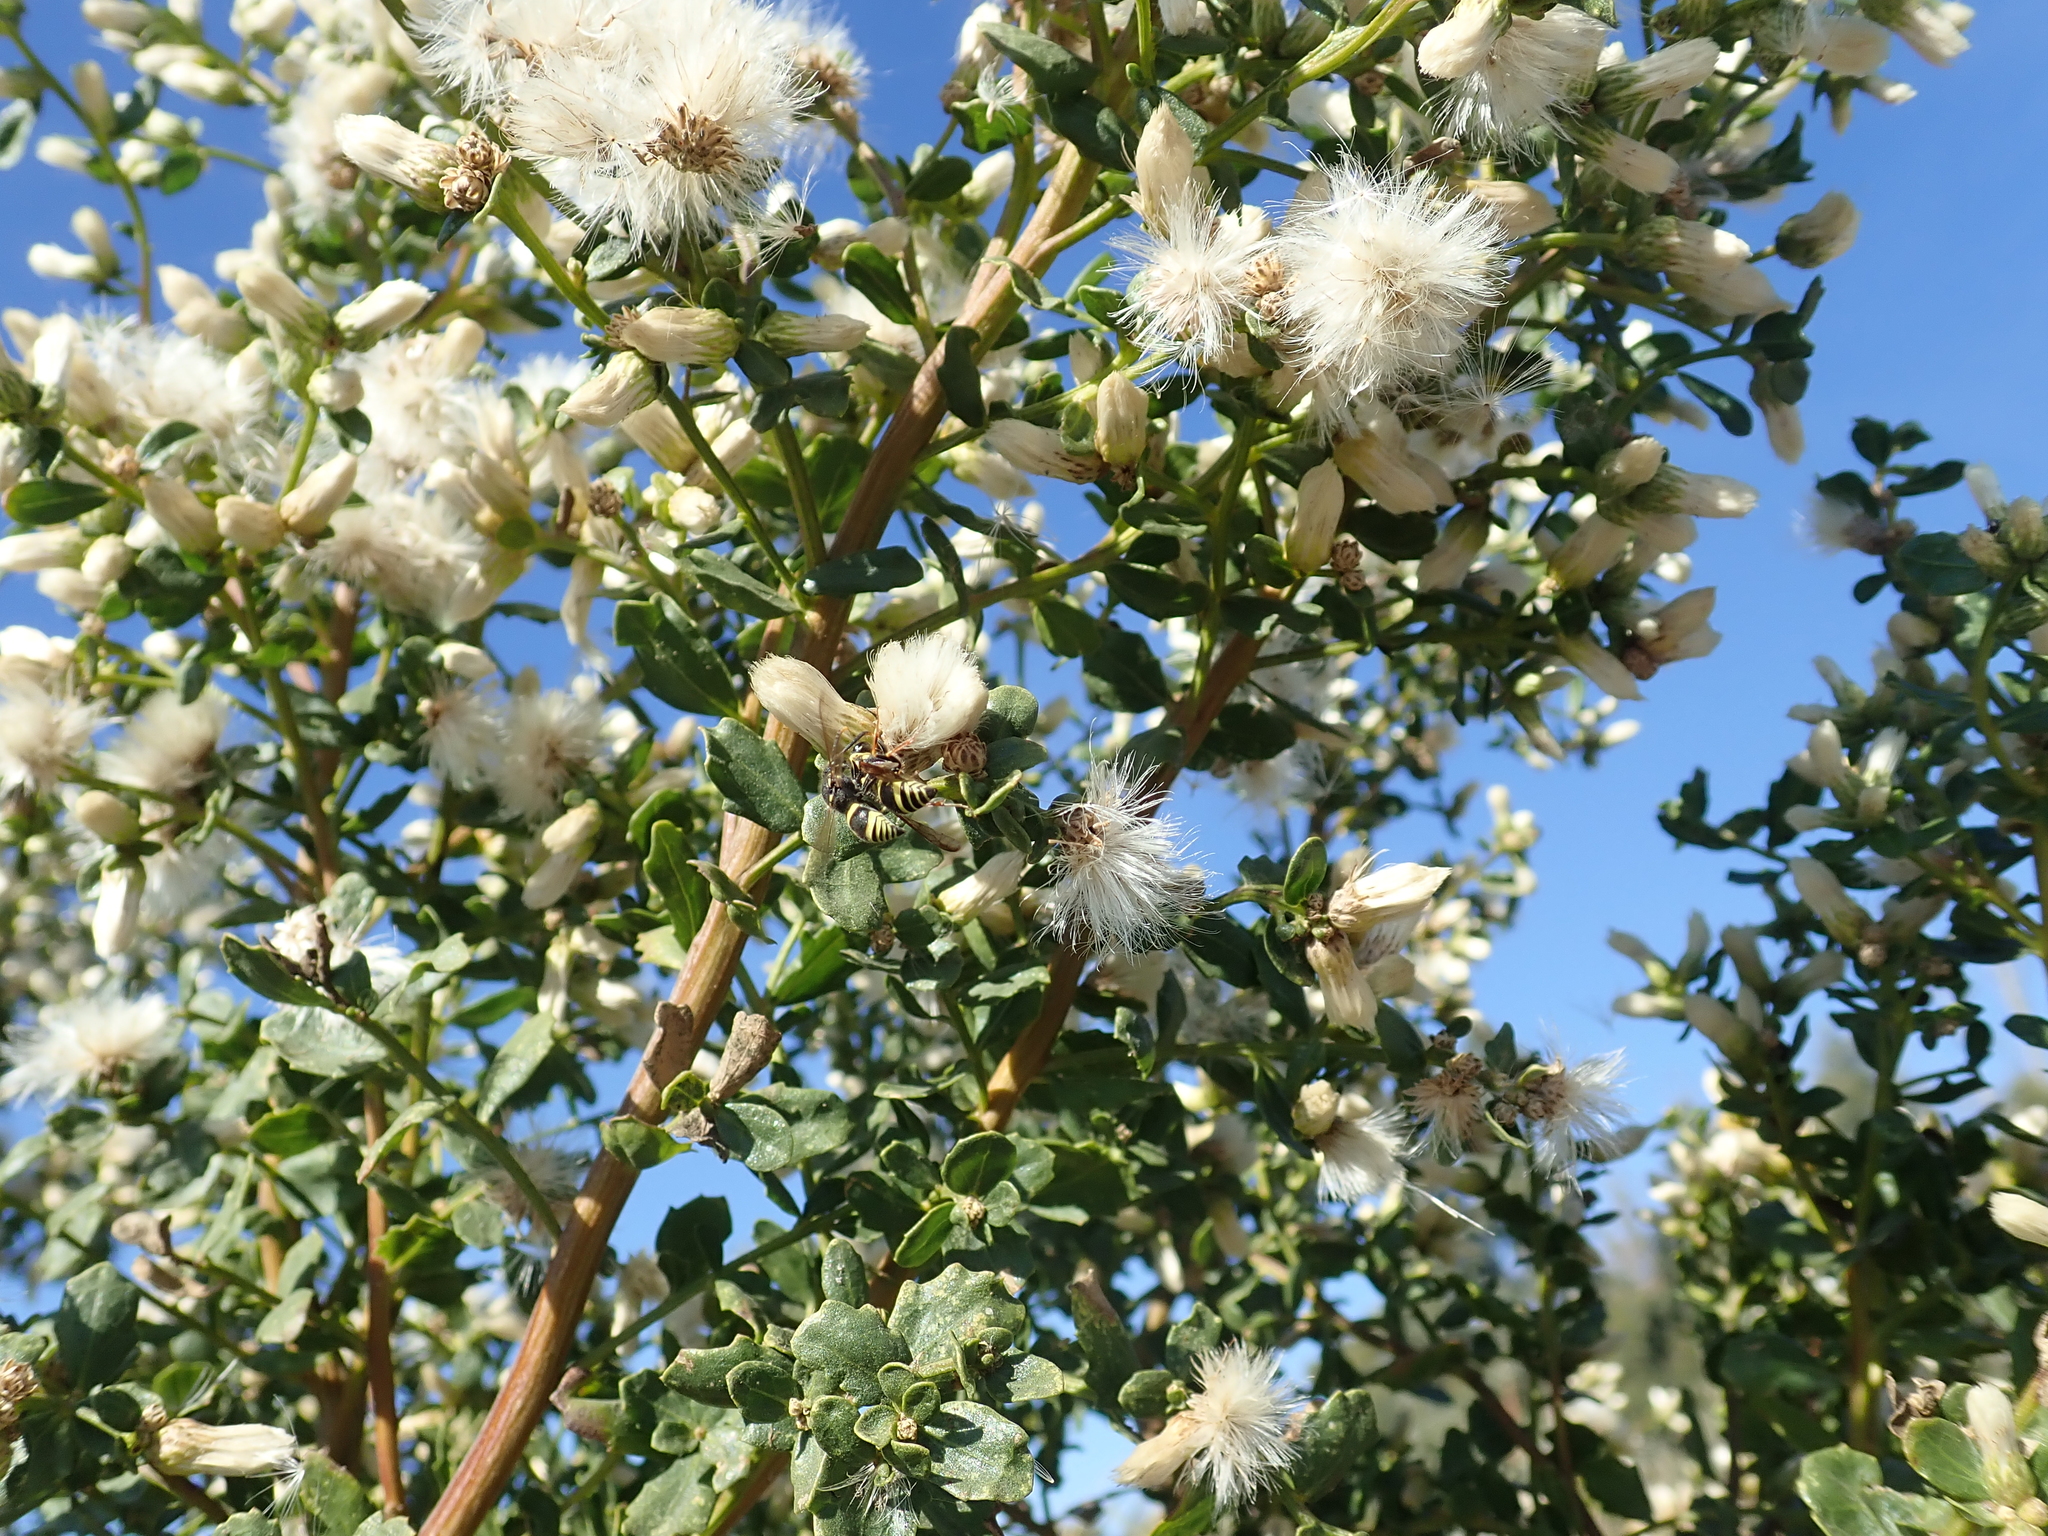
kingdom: Plantae
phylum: Tracheophyta
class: Magnoliopsida
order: Asterales
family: Asteraceae
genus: Baccharis
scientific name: Baccharis pilularis
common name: Coyotebrush
